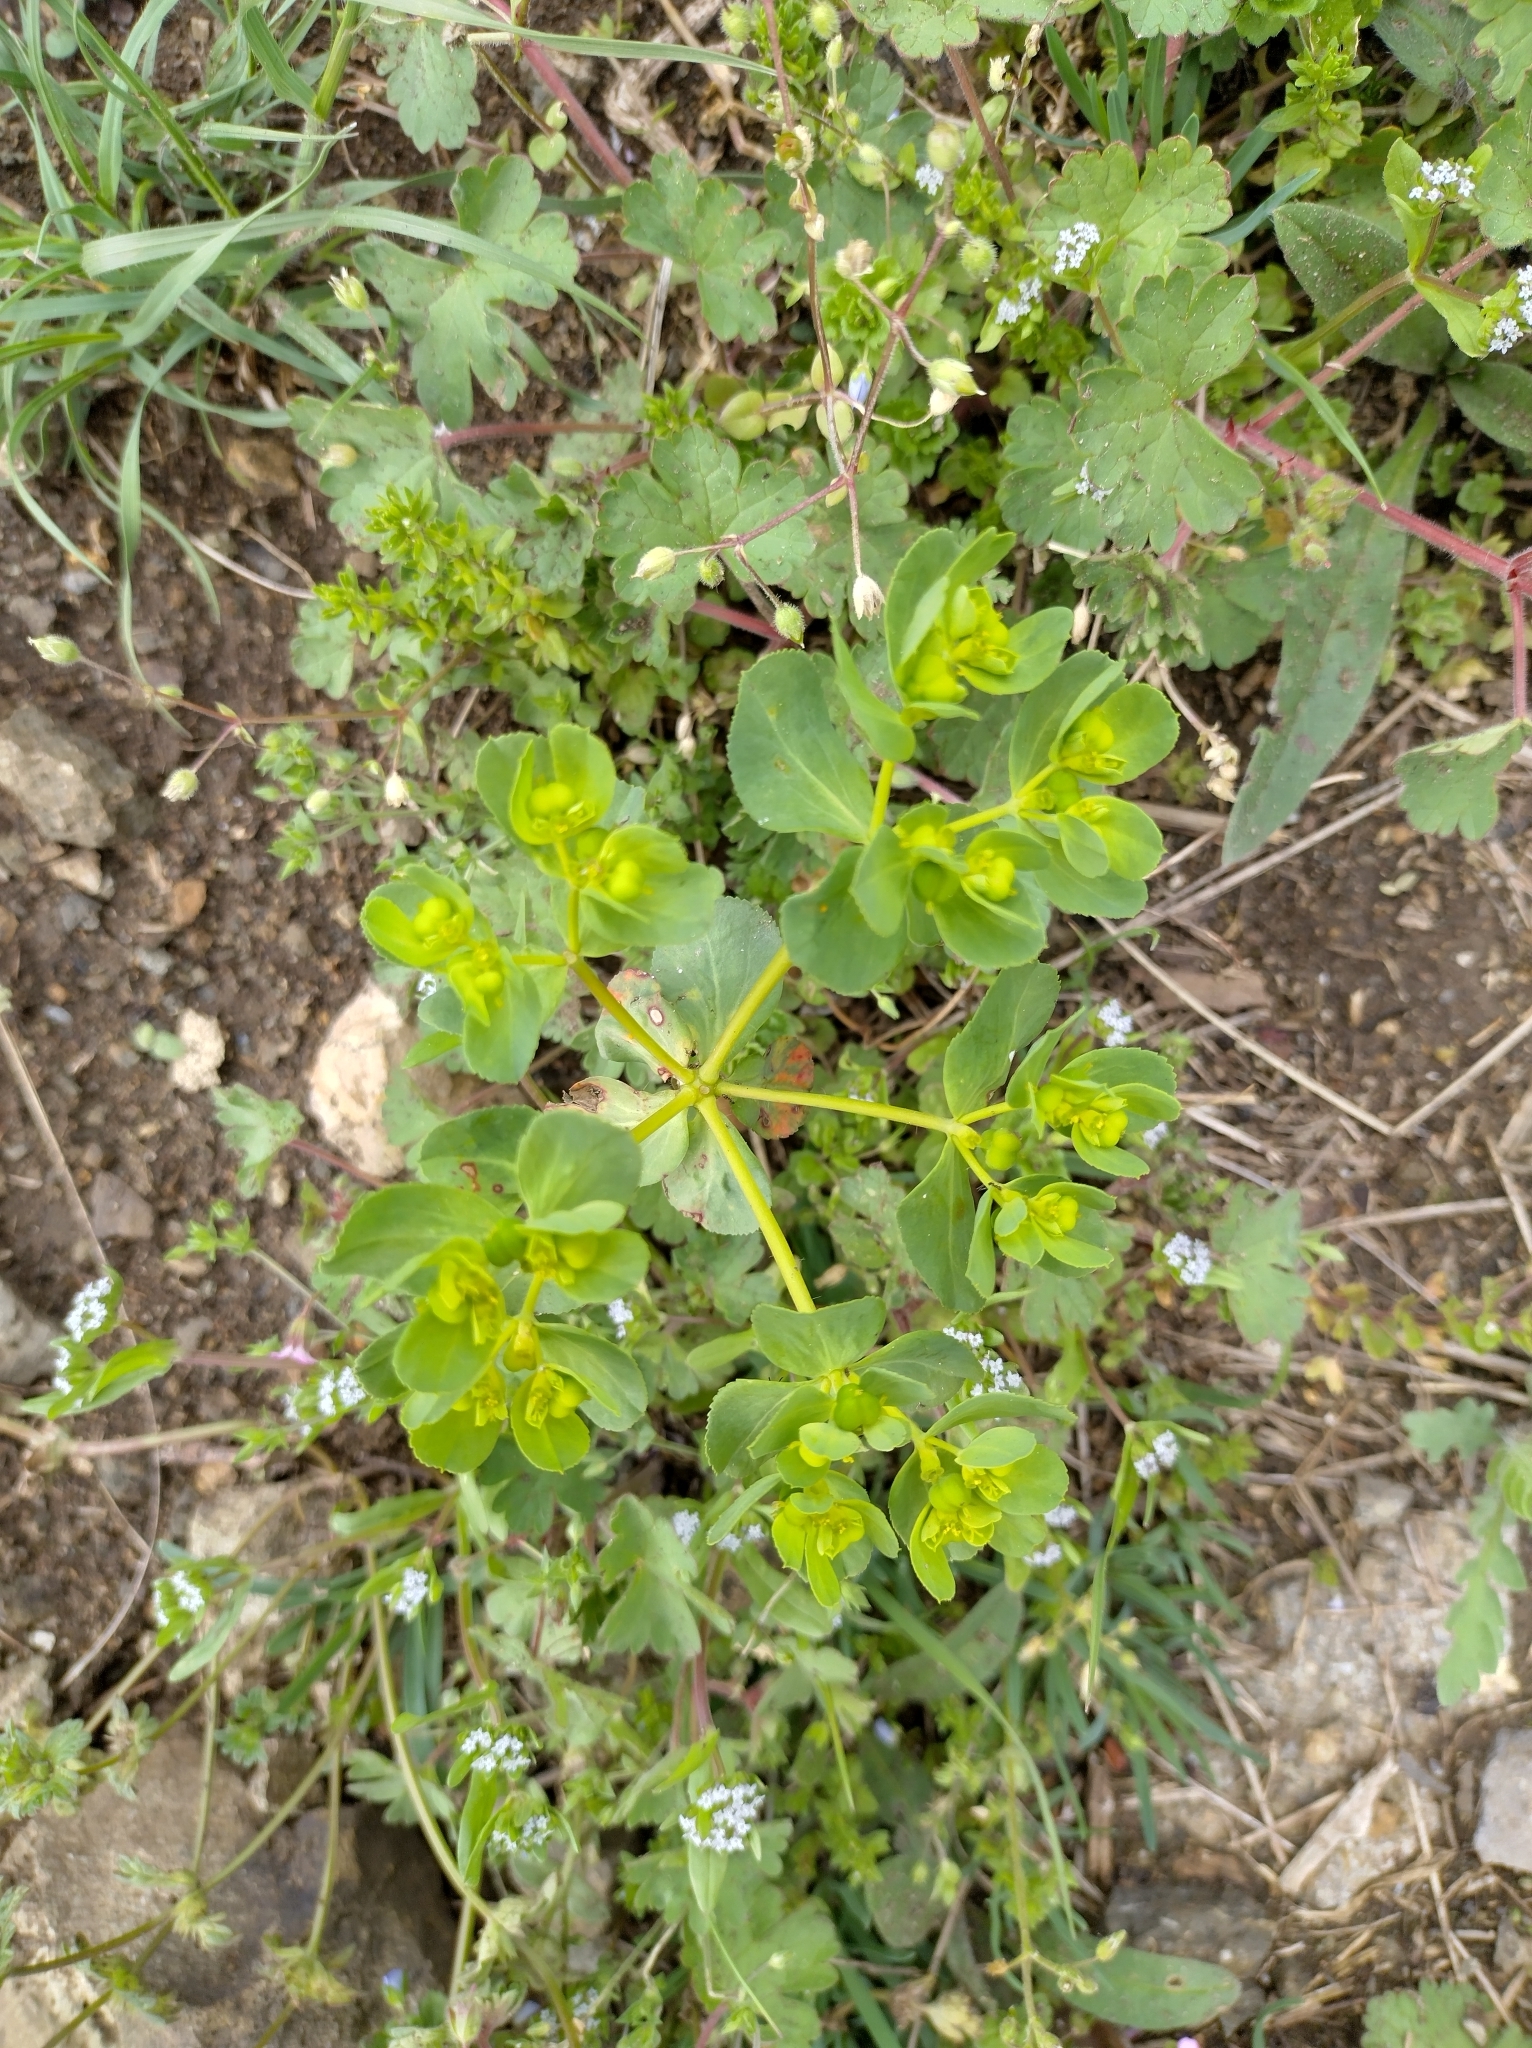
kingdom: Plantae
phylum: Tracheophyta
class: Magnoliopsida
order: Malpighiales
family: Euphorbiaceae
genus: Euphorbia
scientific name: Euphorbia helioscopia
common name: Sun spurge
